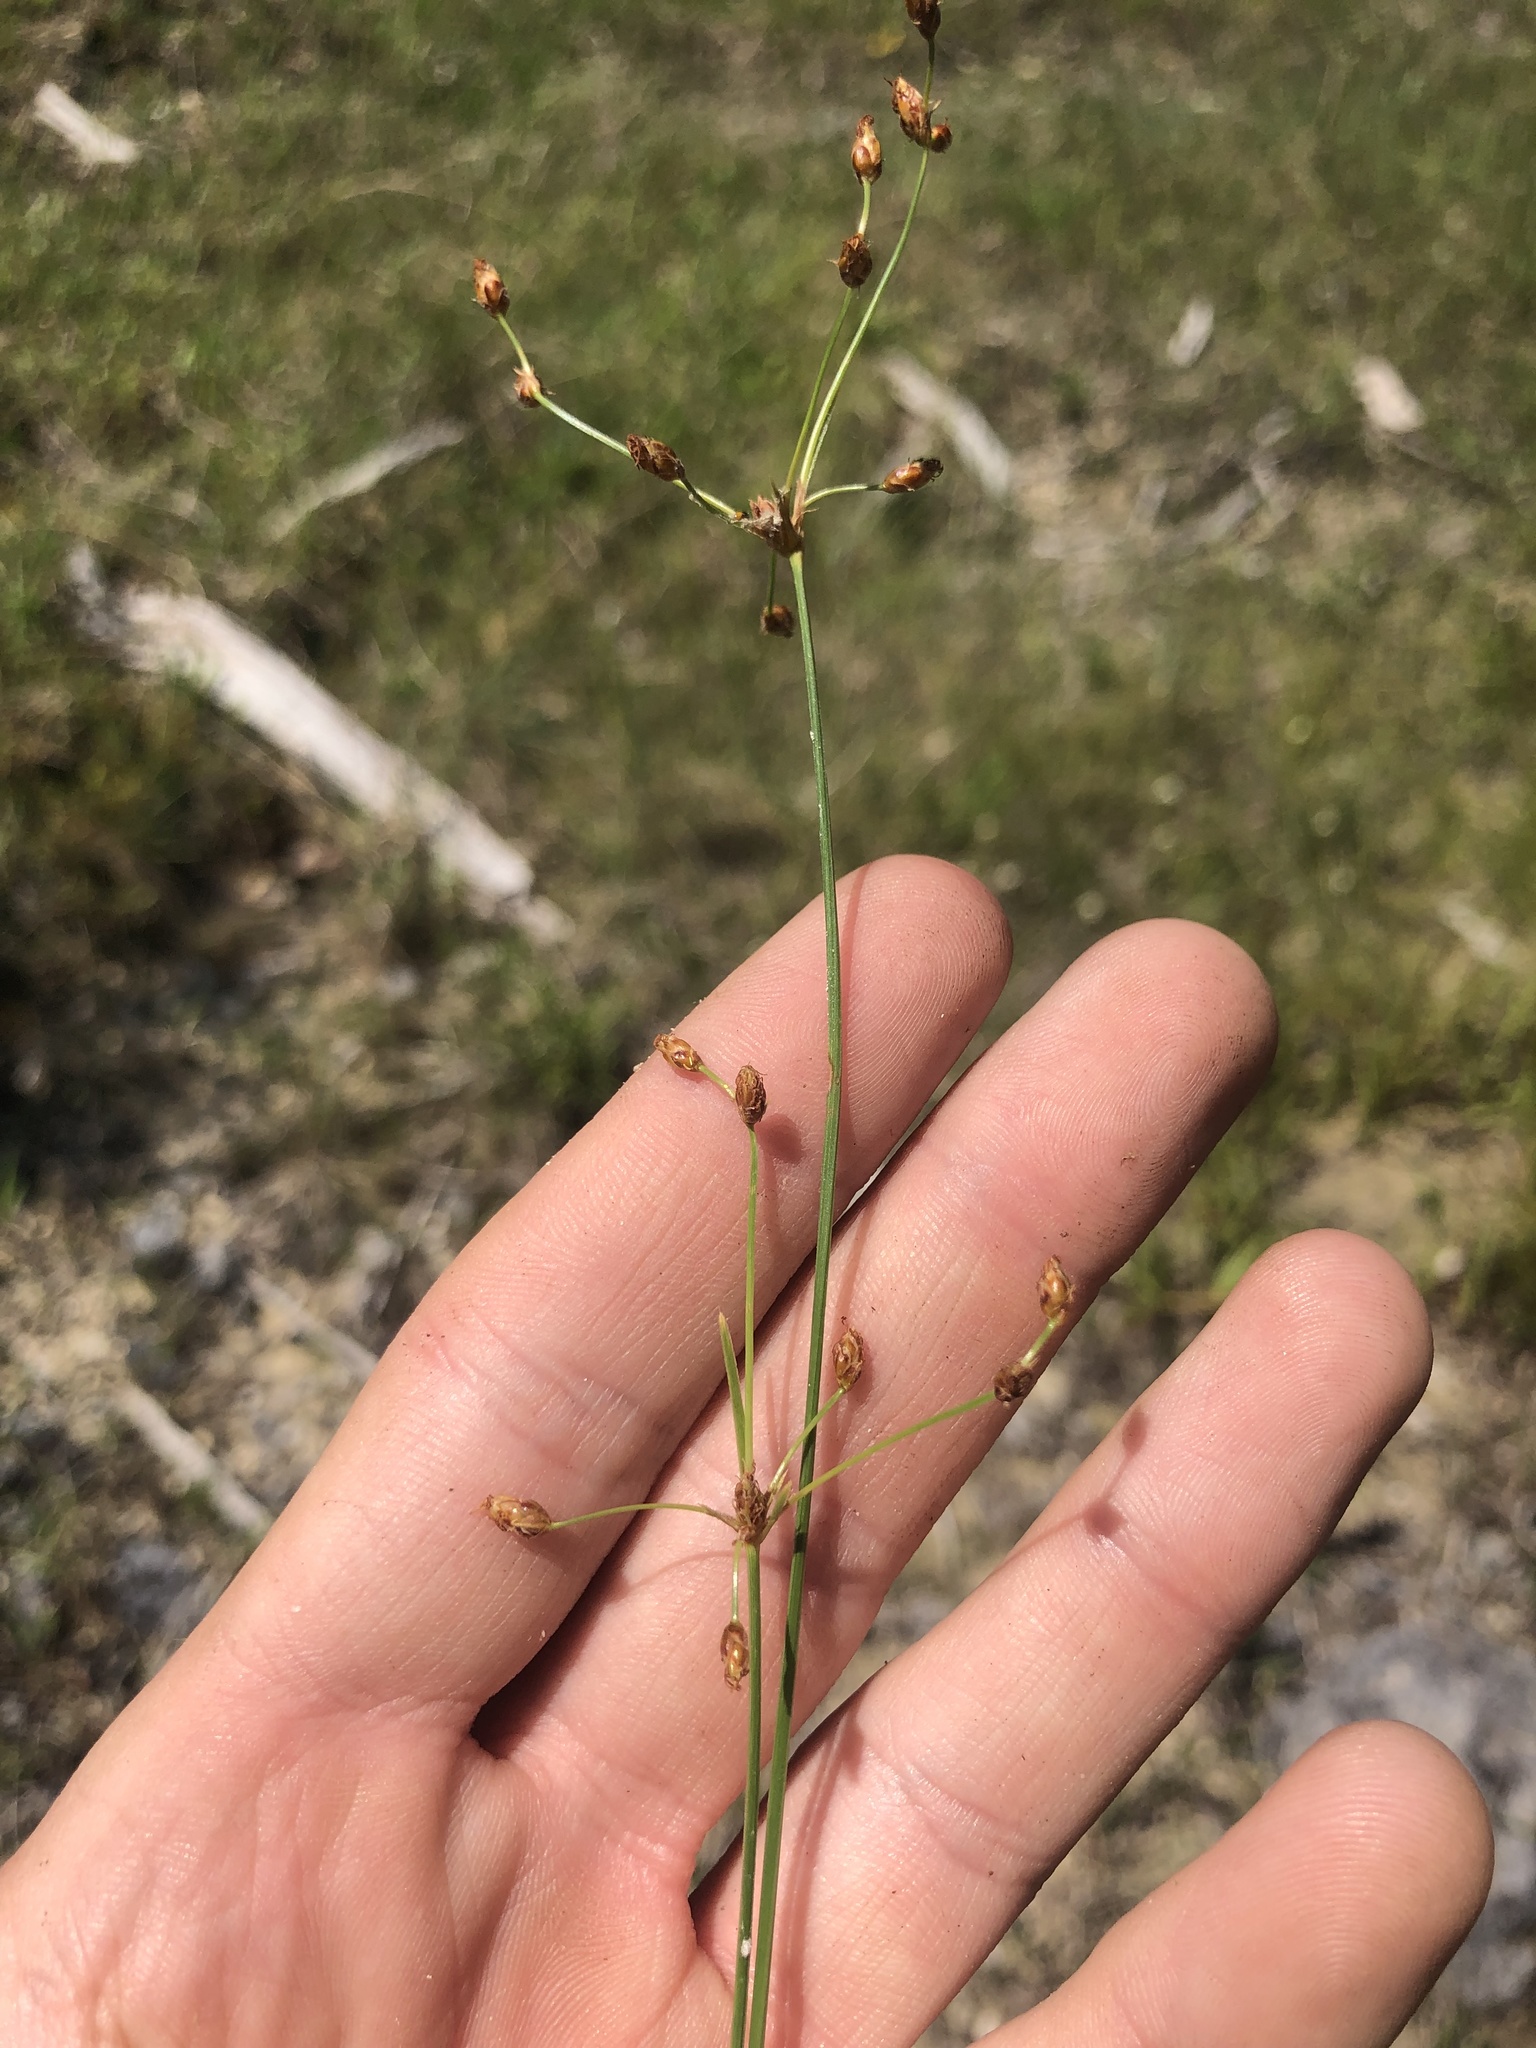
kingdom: Plantae
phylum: Tracheophyta
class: Liliopsida
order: Poales
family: Cyperaceae
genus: Fimbristylis
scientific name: Fimbristylis puberula
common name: Hairy fimbristylis
